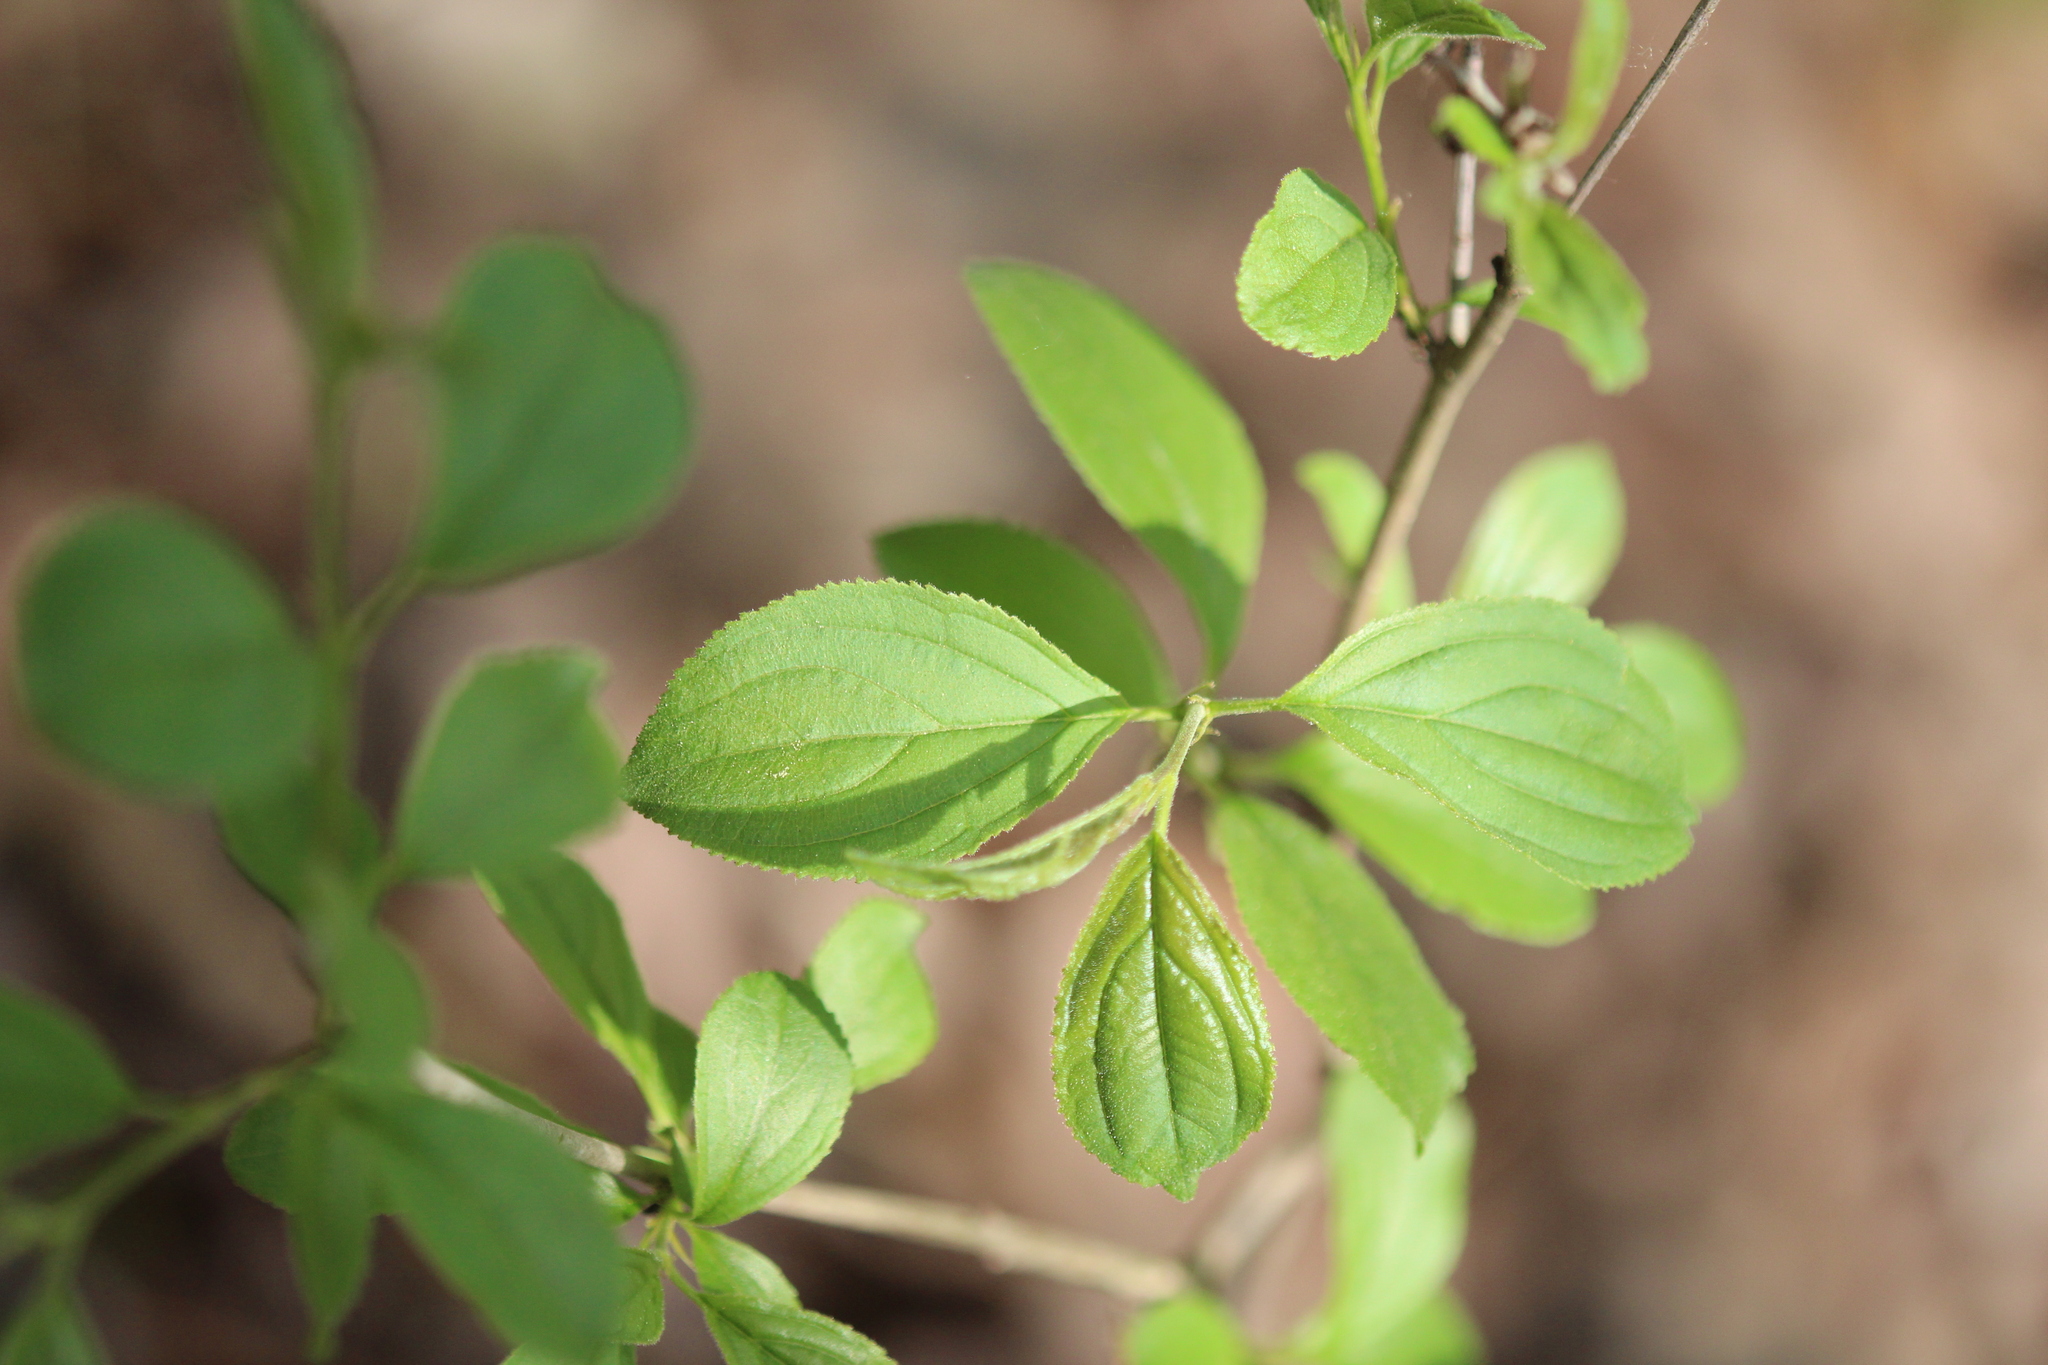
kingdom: Plantae
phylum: Tracheophyta
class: Magnoliopsida
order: Rosales
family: Rhamnaceae
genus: Rhamnus
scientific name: Rhamnus cathartica
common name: Common buckthorn
